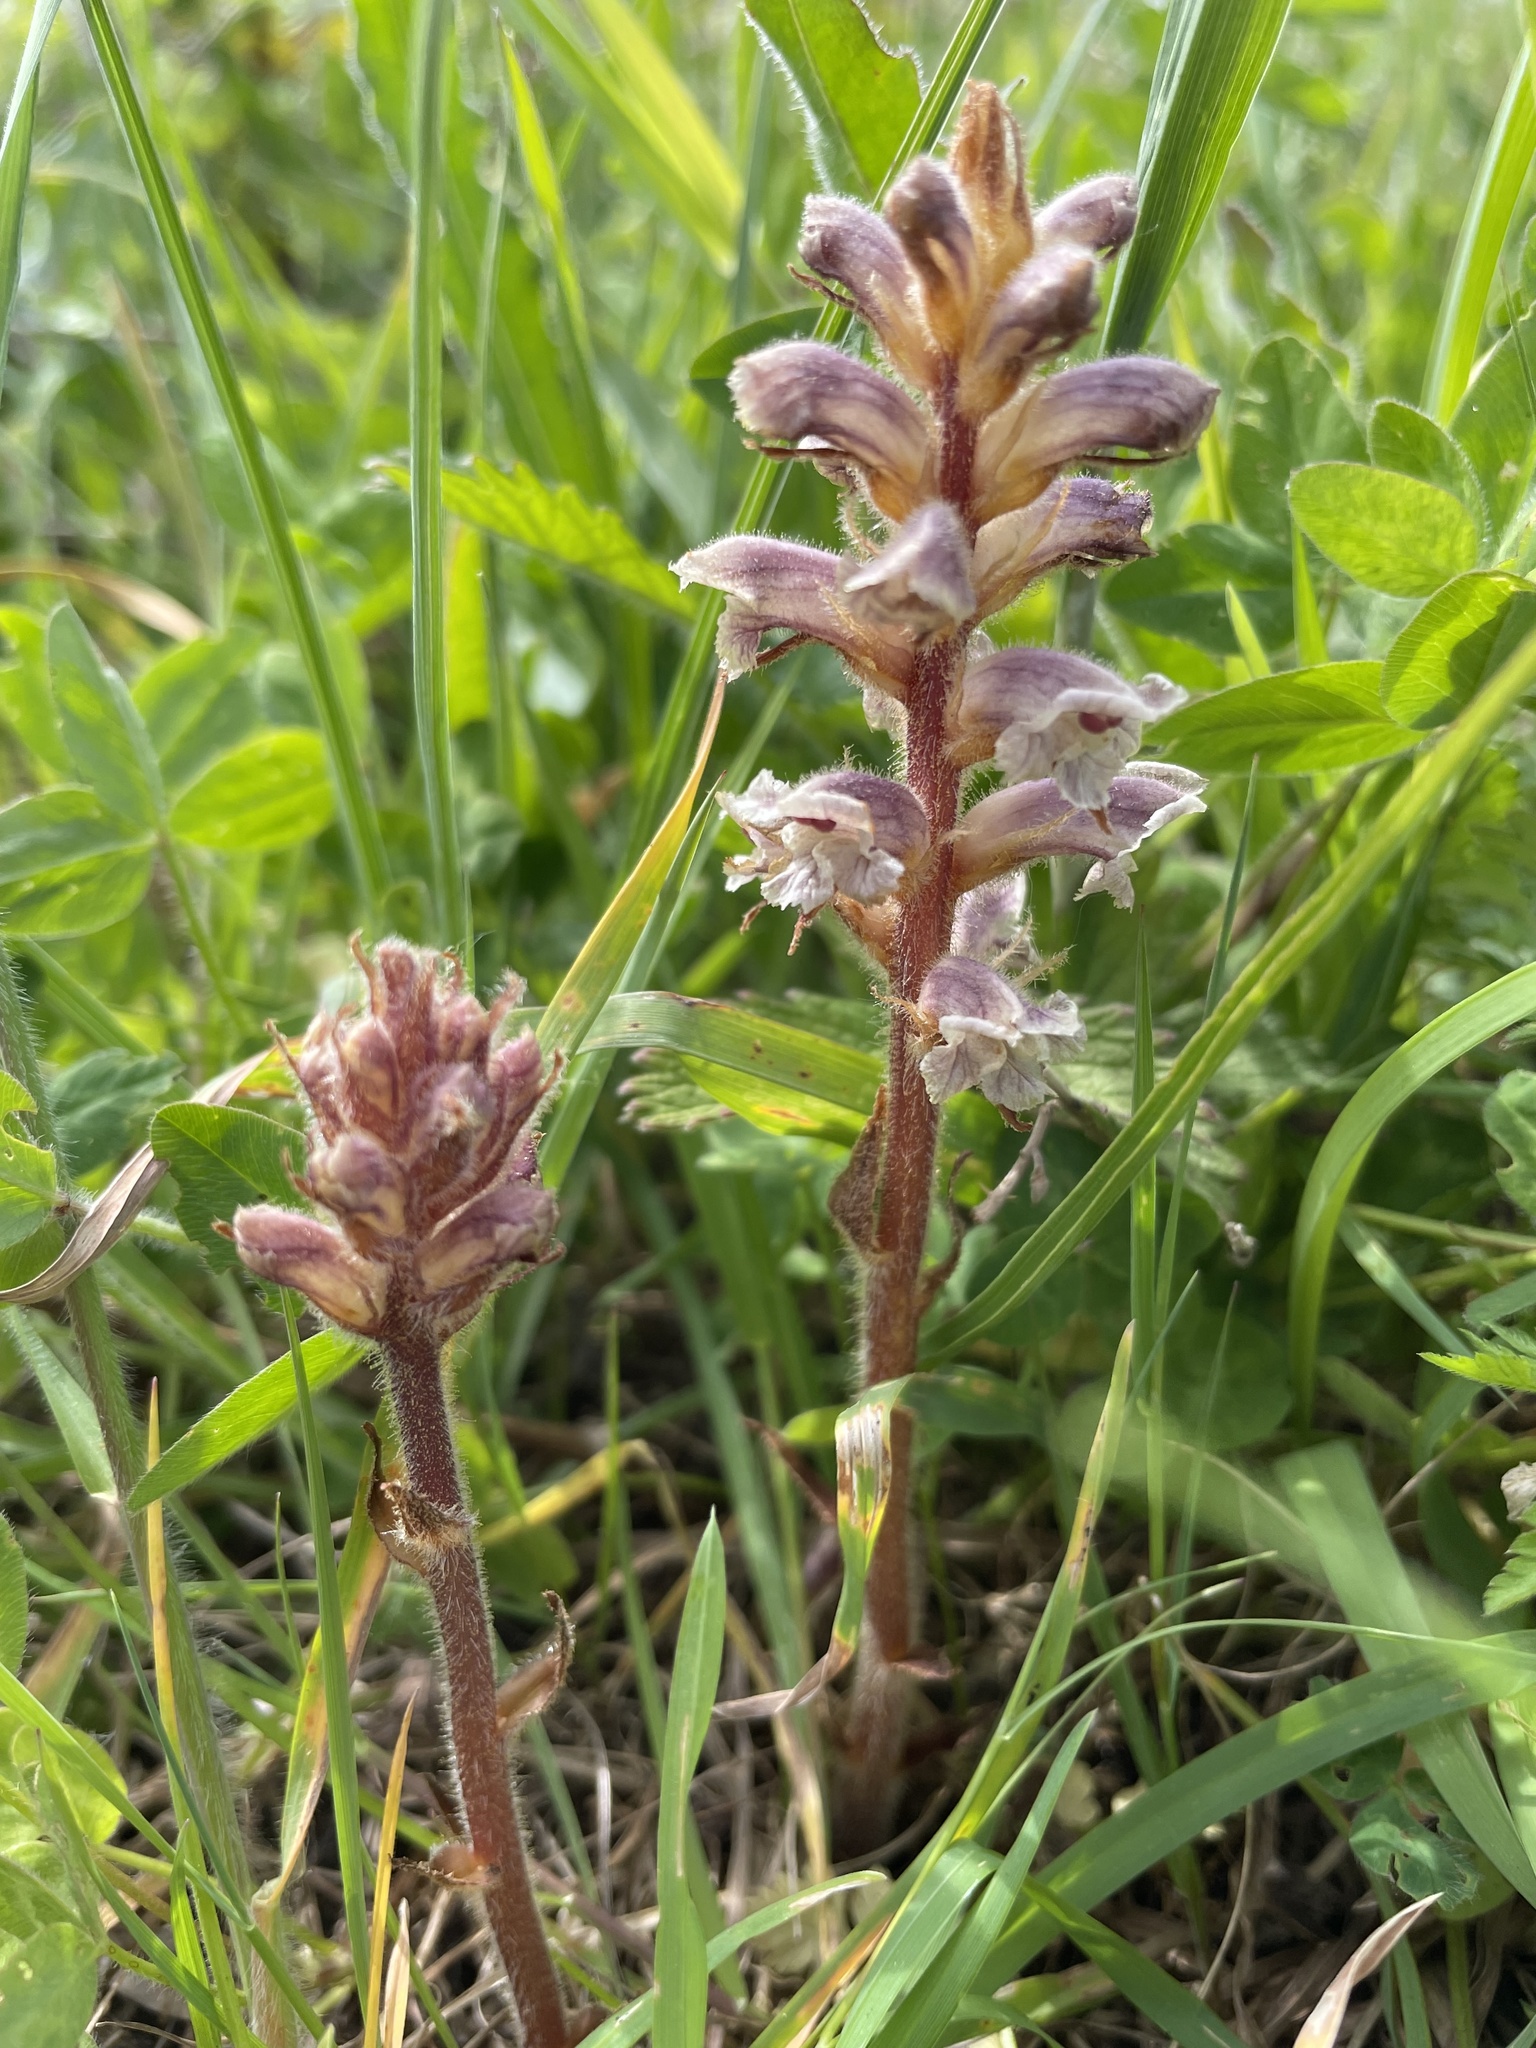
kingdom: Plantae
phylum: Tracheophyta
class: Magnoliopsida
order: Lamiales
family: Orobanchaceae
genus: Orobanche
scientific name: Orobanche minor
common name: Common broomrape
